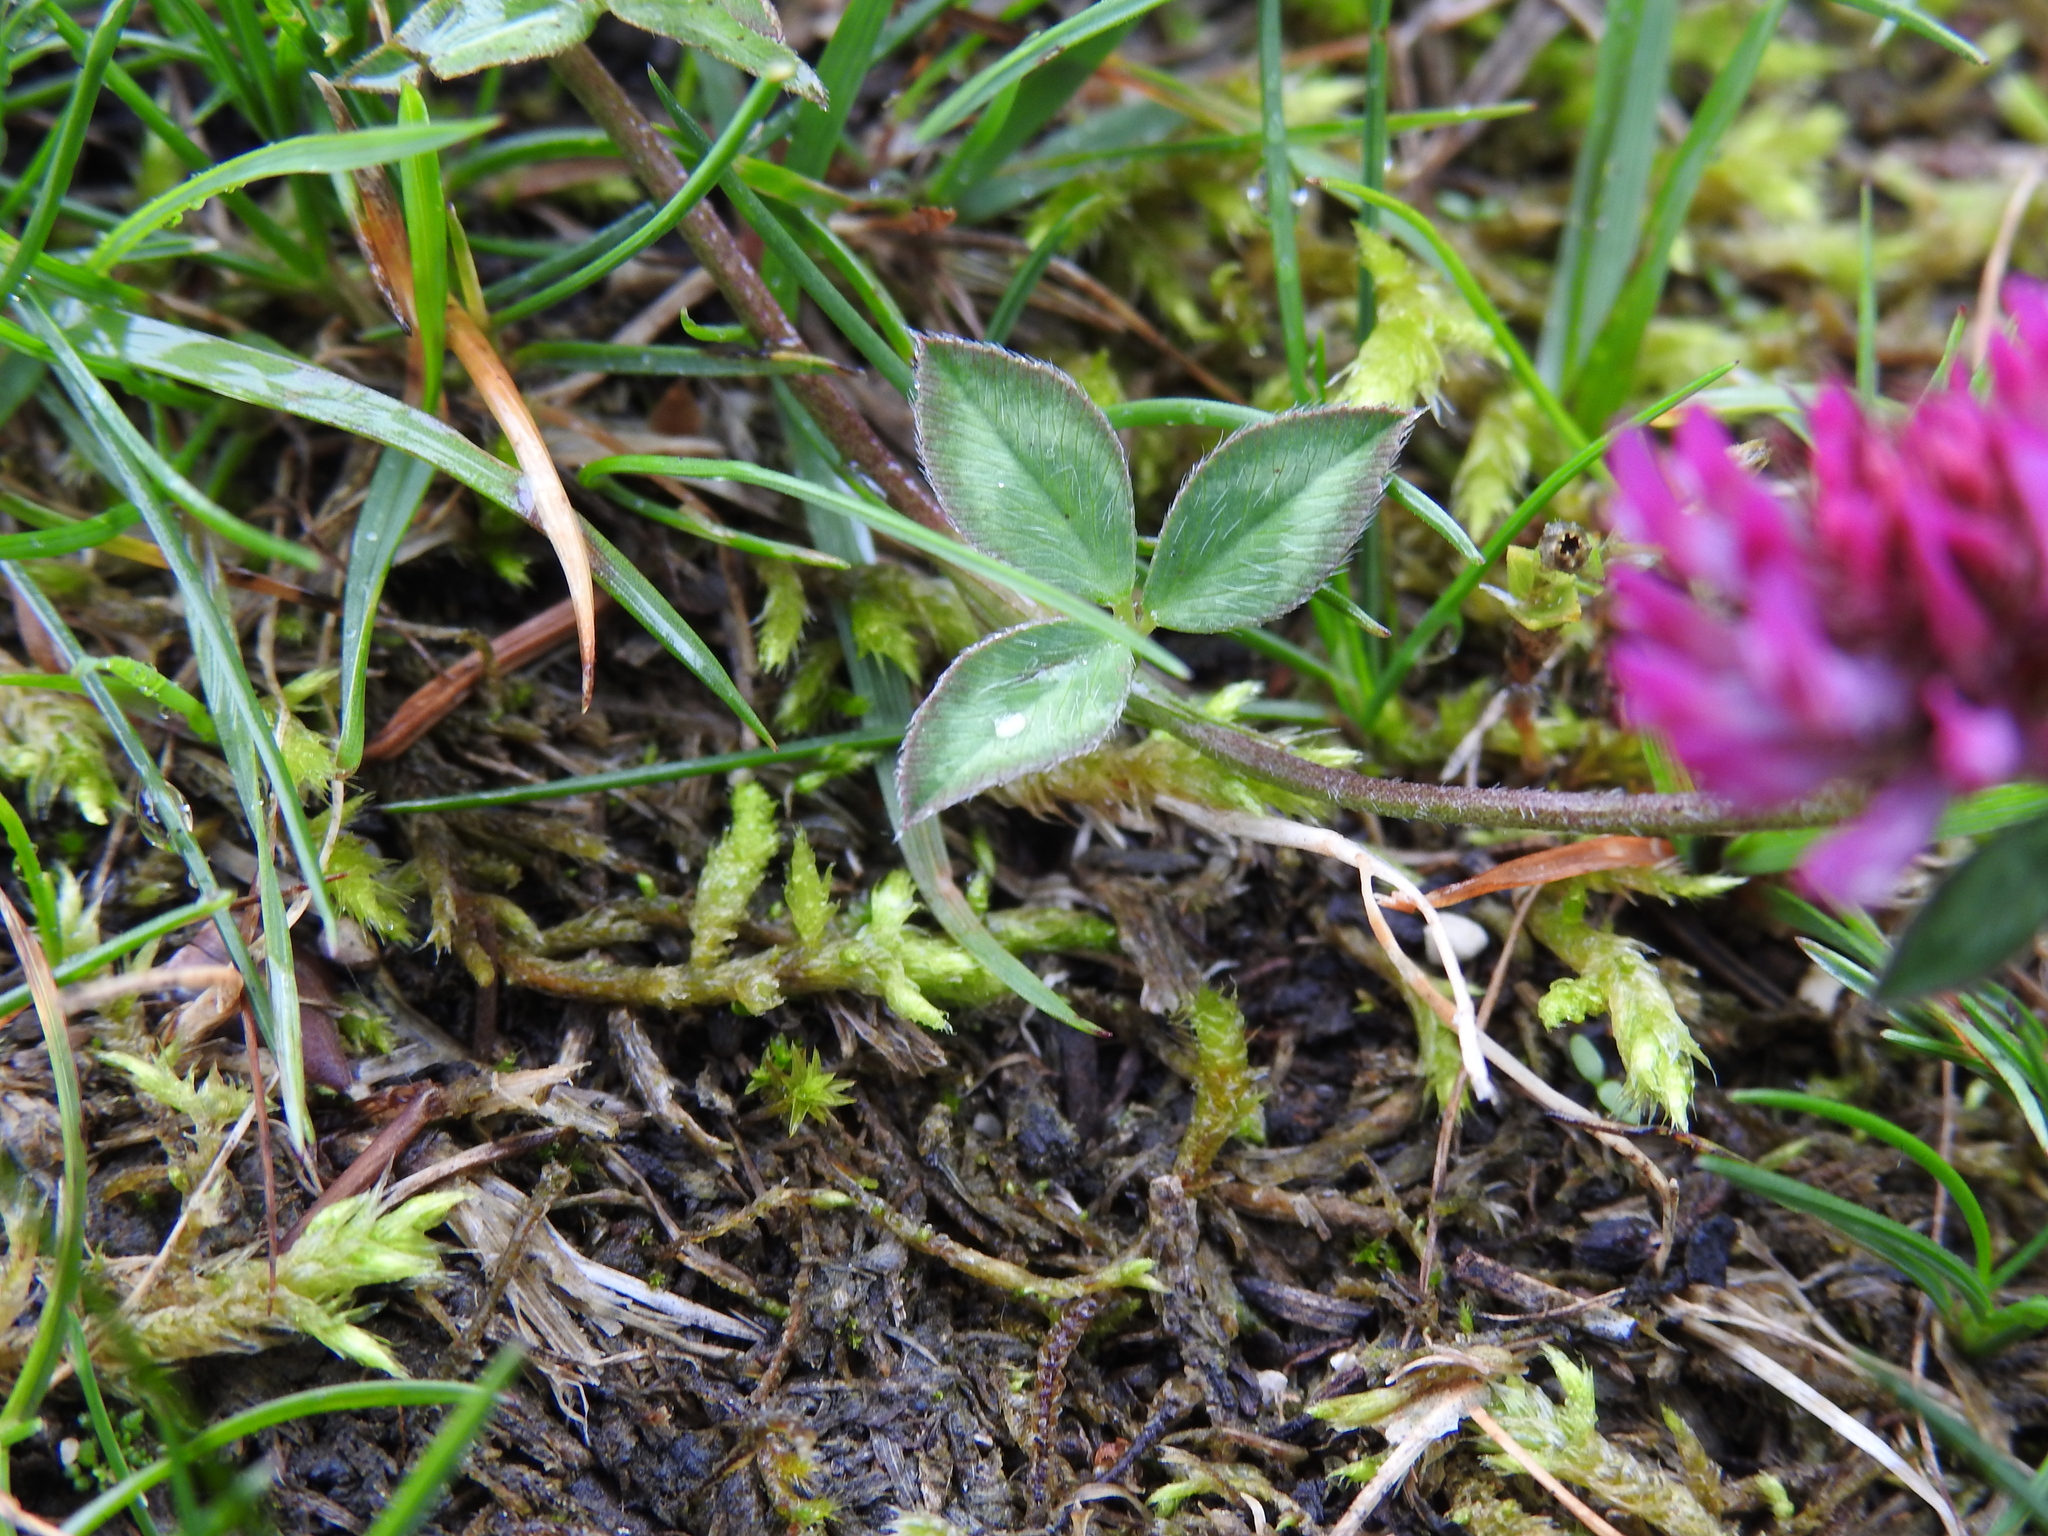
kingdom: Plantae
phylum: Tracheophyta
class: Magnoliopsida
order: Fabales
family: Fabaceae
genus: Trifolium
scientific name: Trifolium pratense
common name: Red clover
